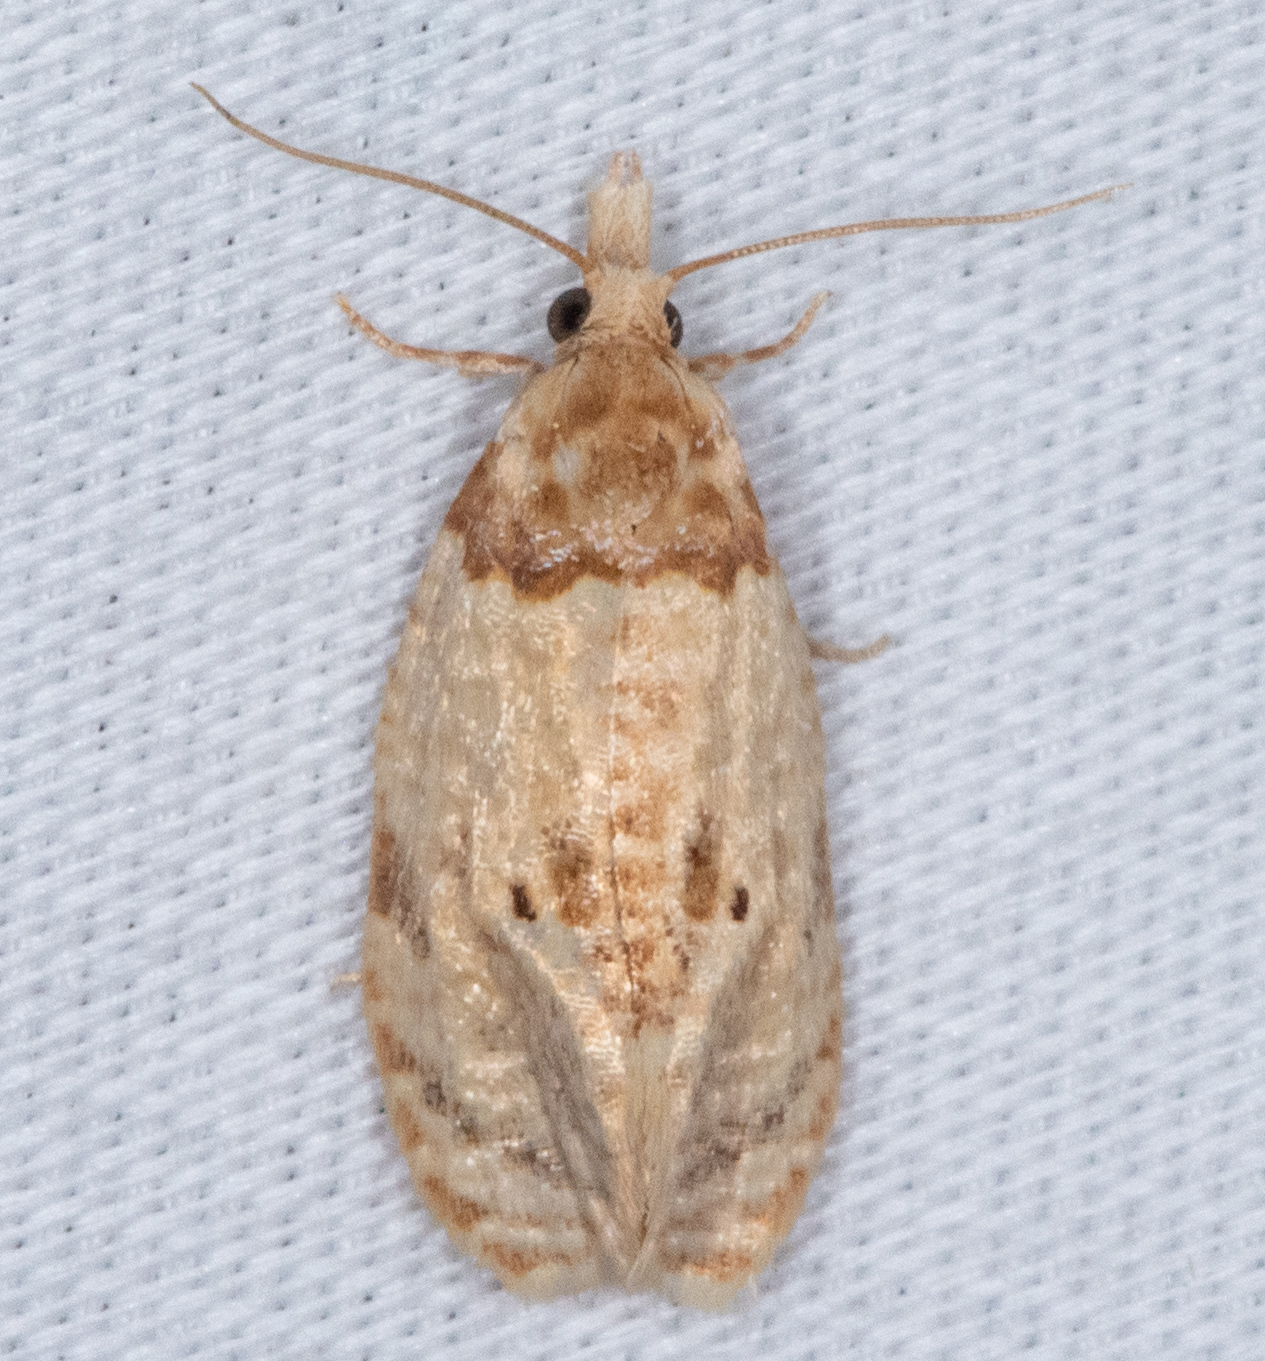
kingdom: Animalia
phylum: Arthropoda
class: Insecta
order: Lepidoptera
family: Tortricidae
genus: Henricus
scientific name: Henricus umbrabasana
